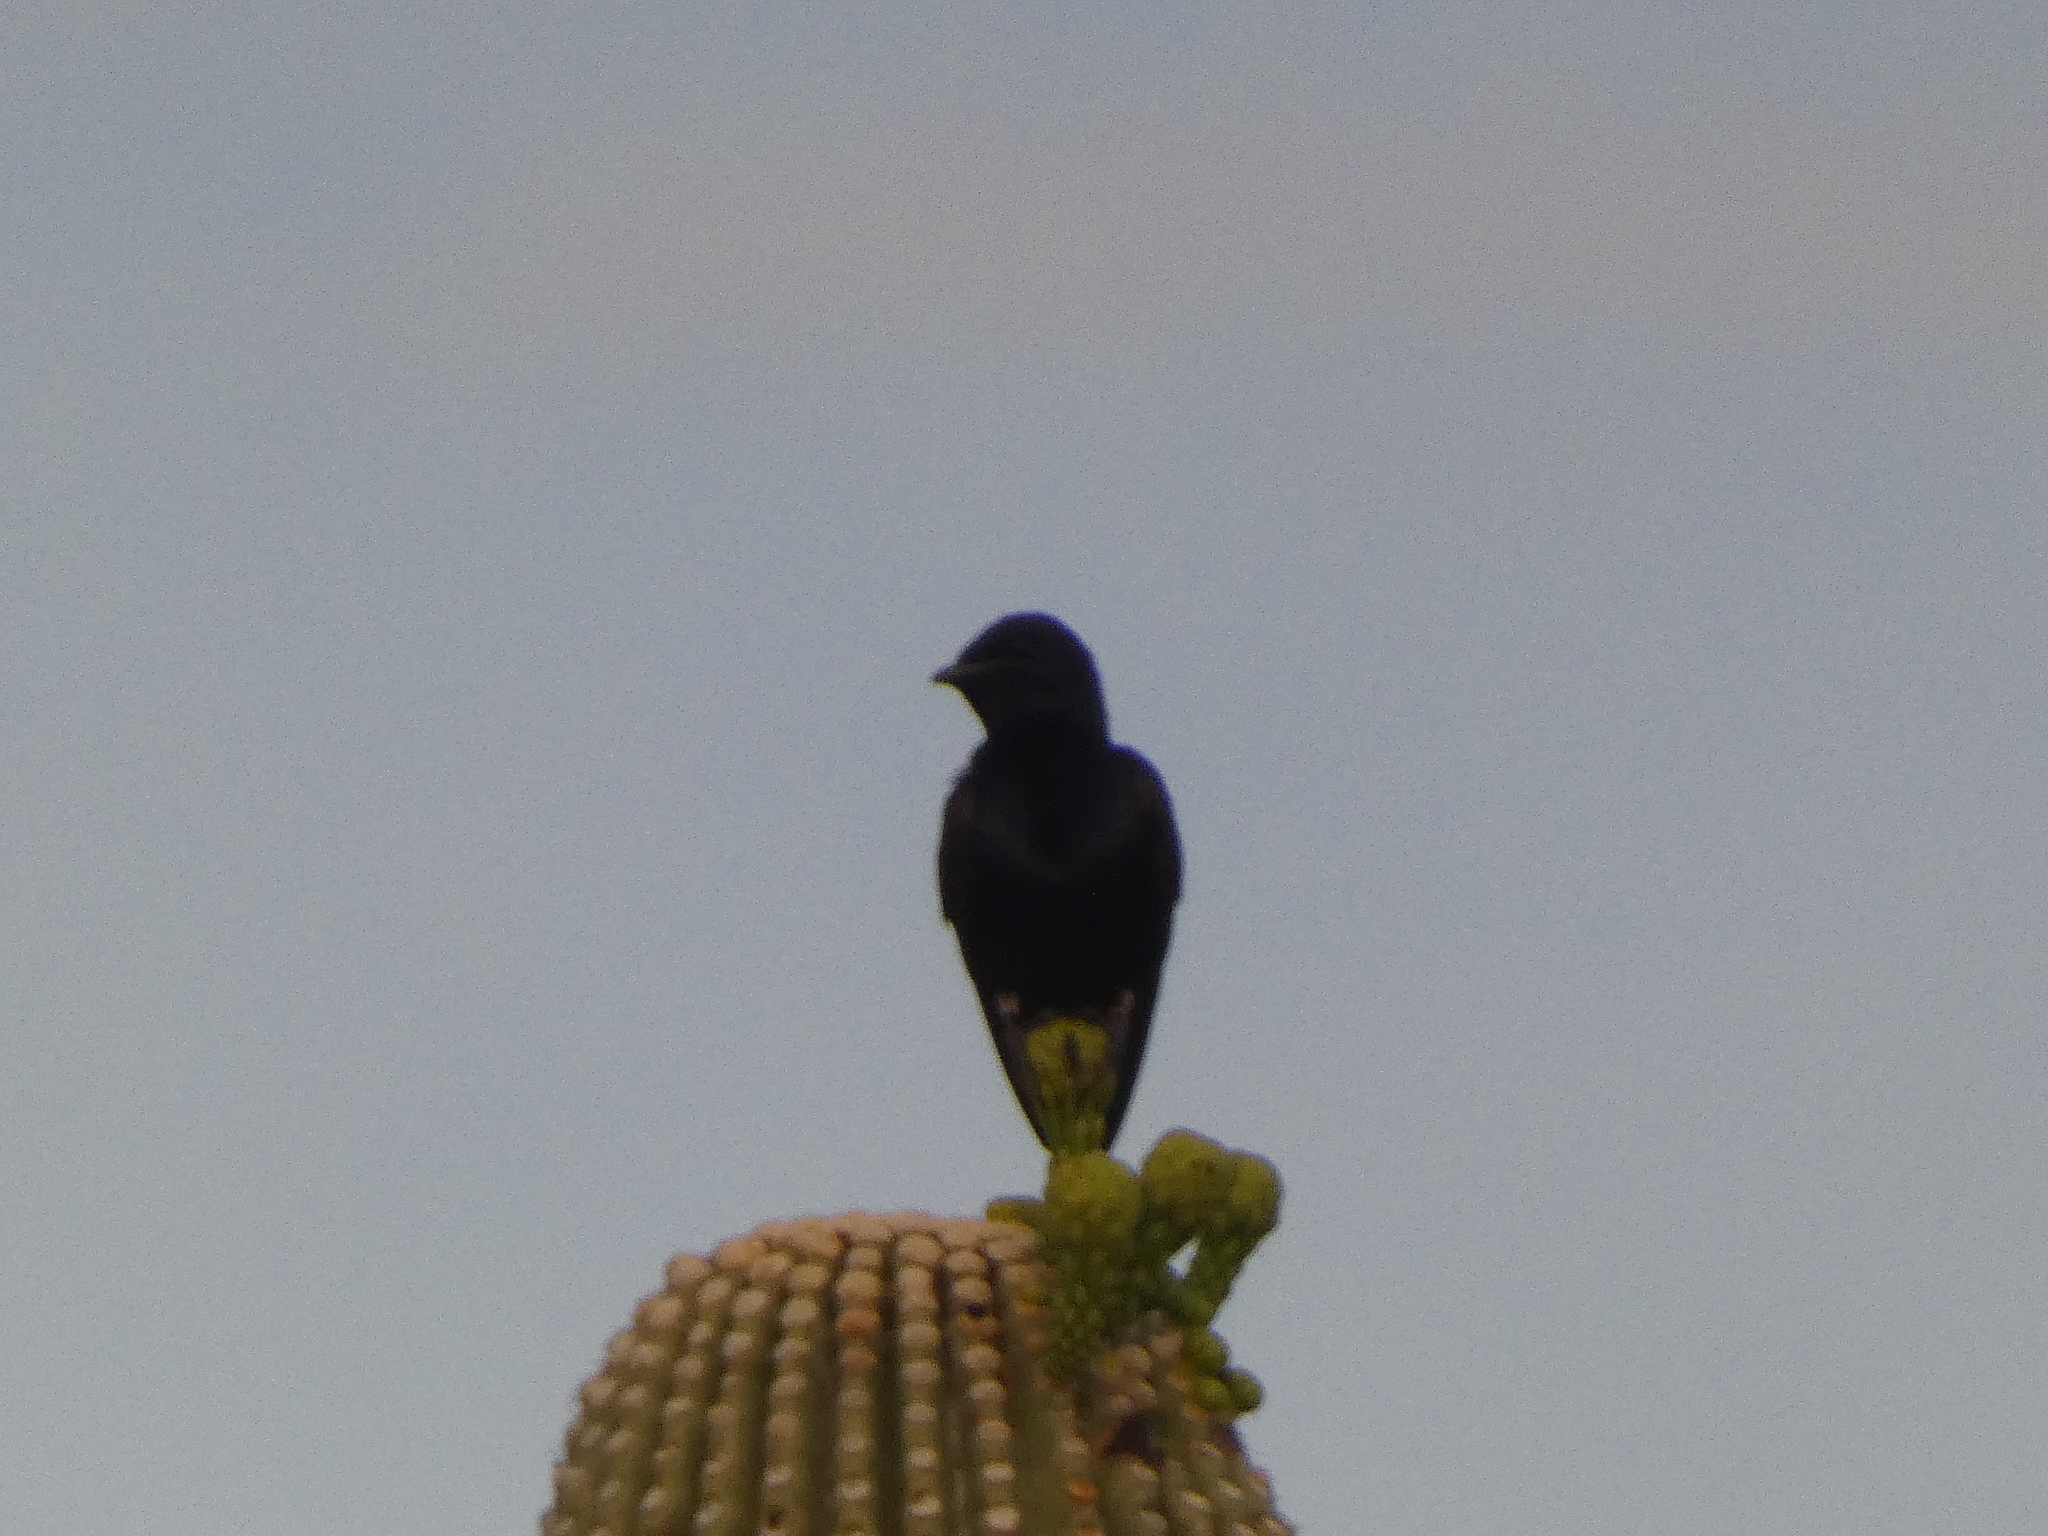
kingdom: Animalia
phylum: Chordata
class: Aves
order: Passeriformes
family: Hirundinidae
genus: Progne
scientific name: Progne subis
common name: Purple martin
